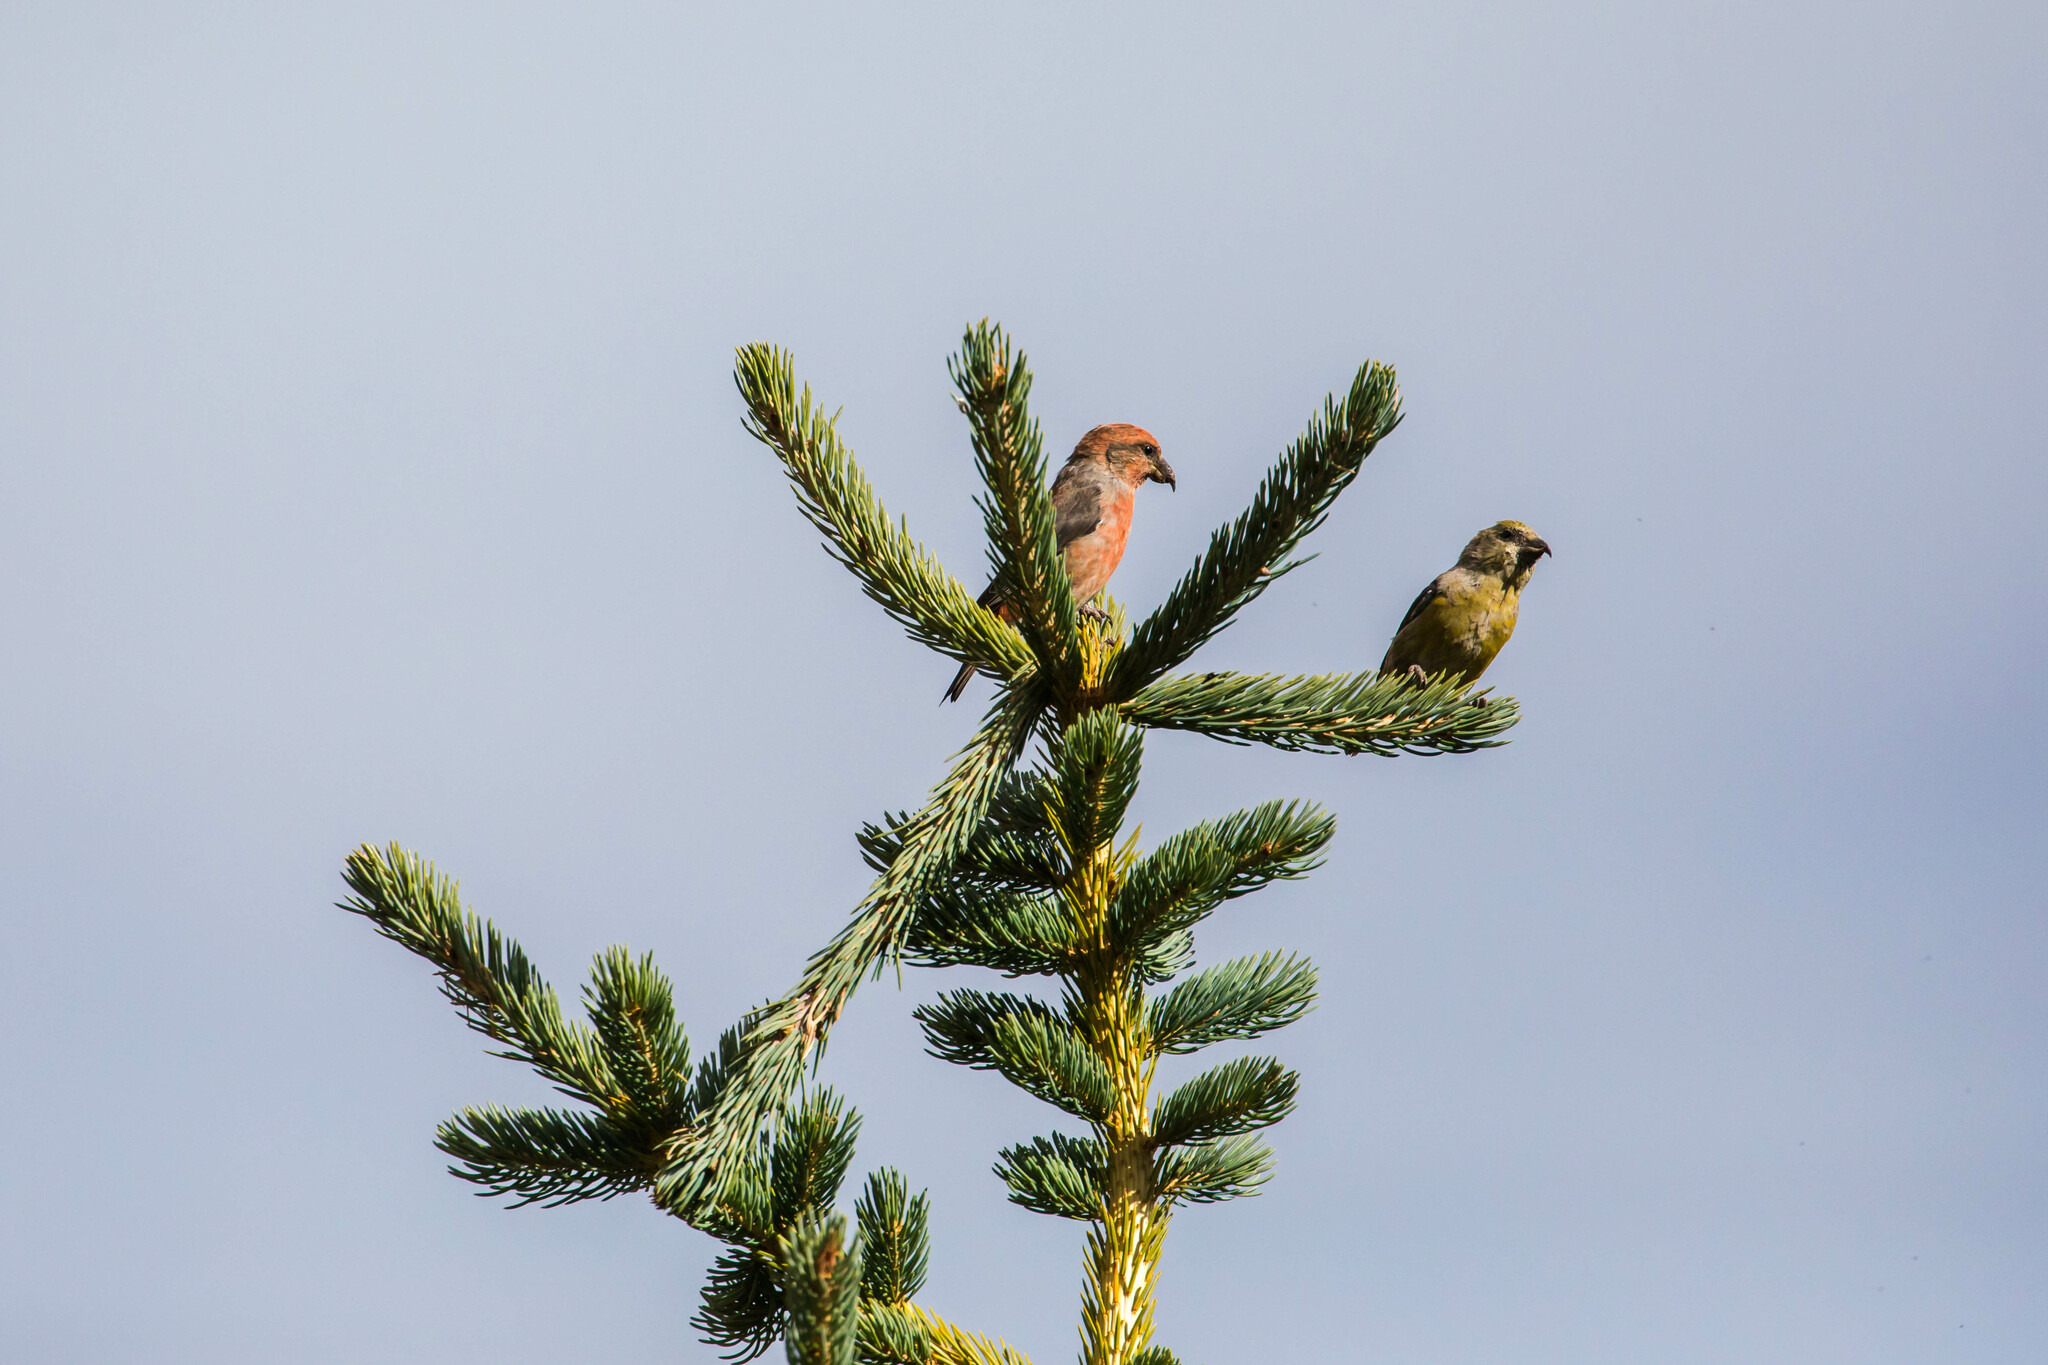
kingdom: Animalia
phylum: Chordata
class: Aves
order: Passeriformes
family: Fringillidae
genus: Loxia
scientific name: Loxia curvirostra
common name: Red crossbill
